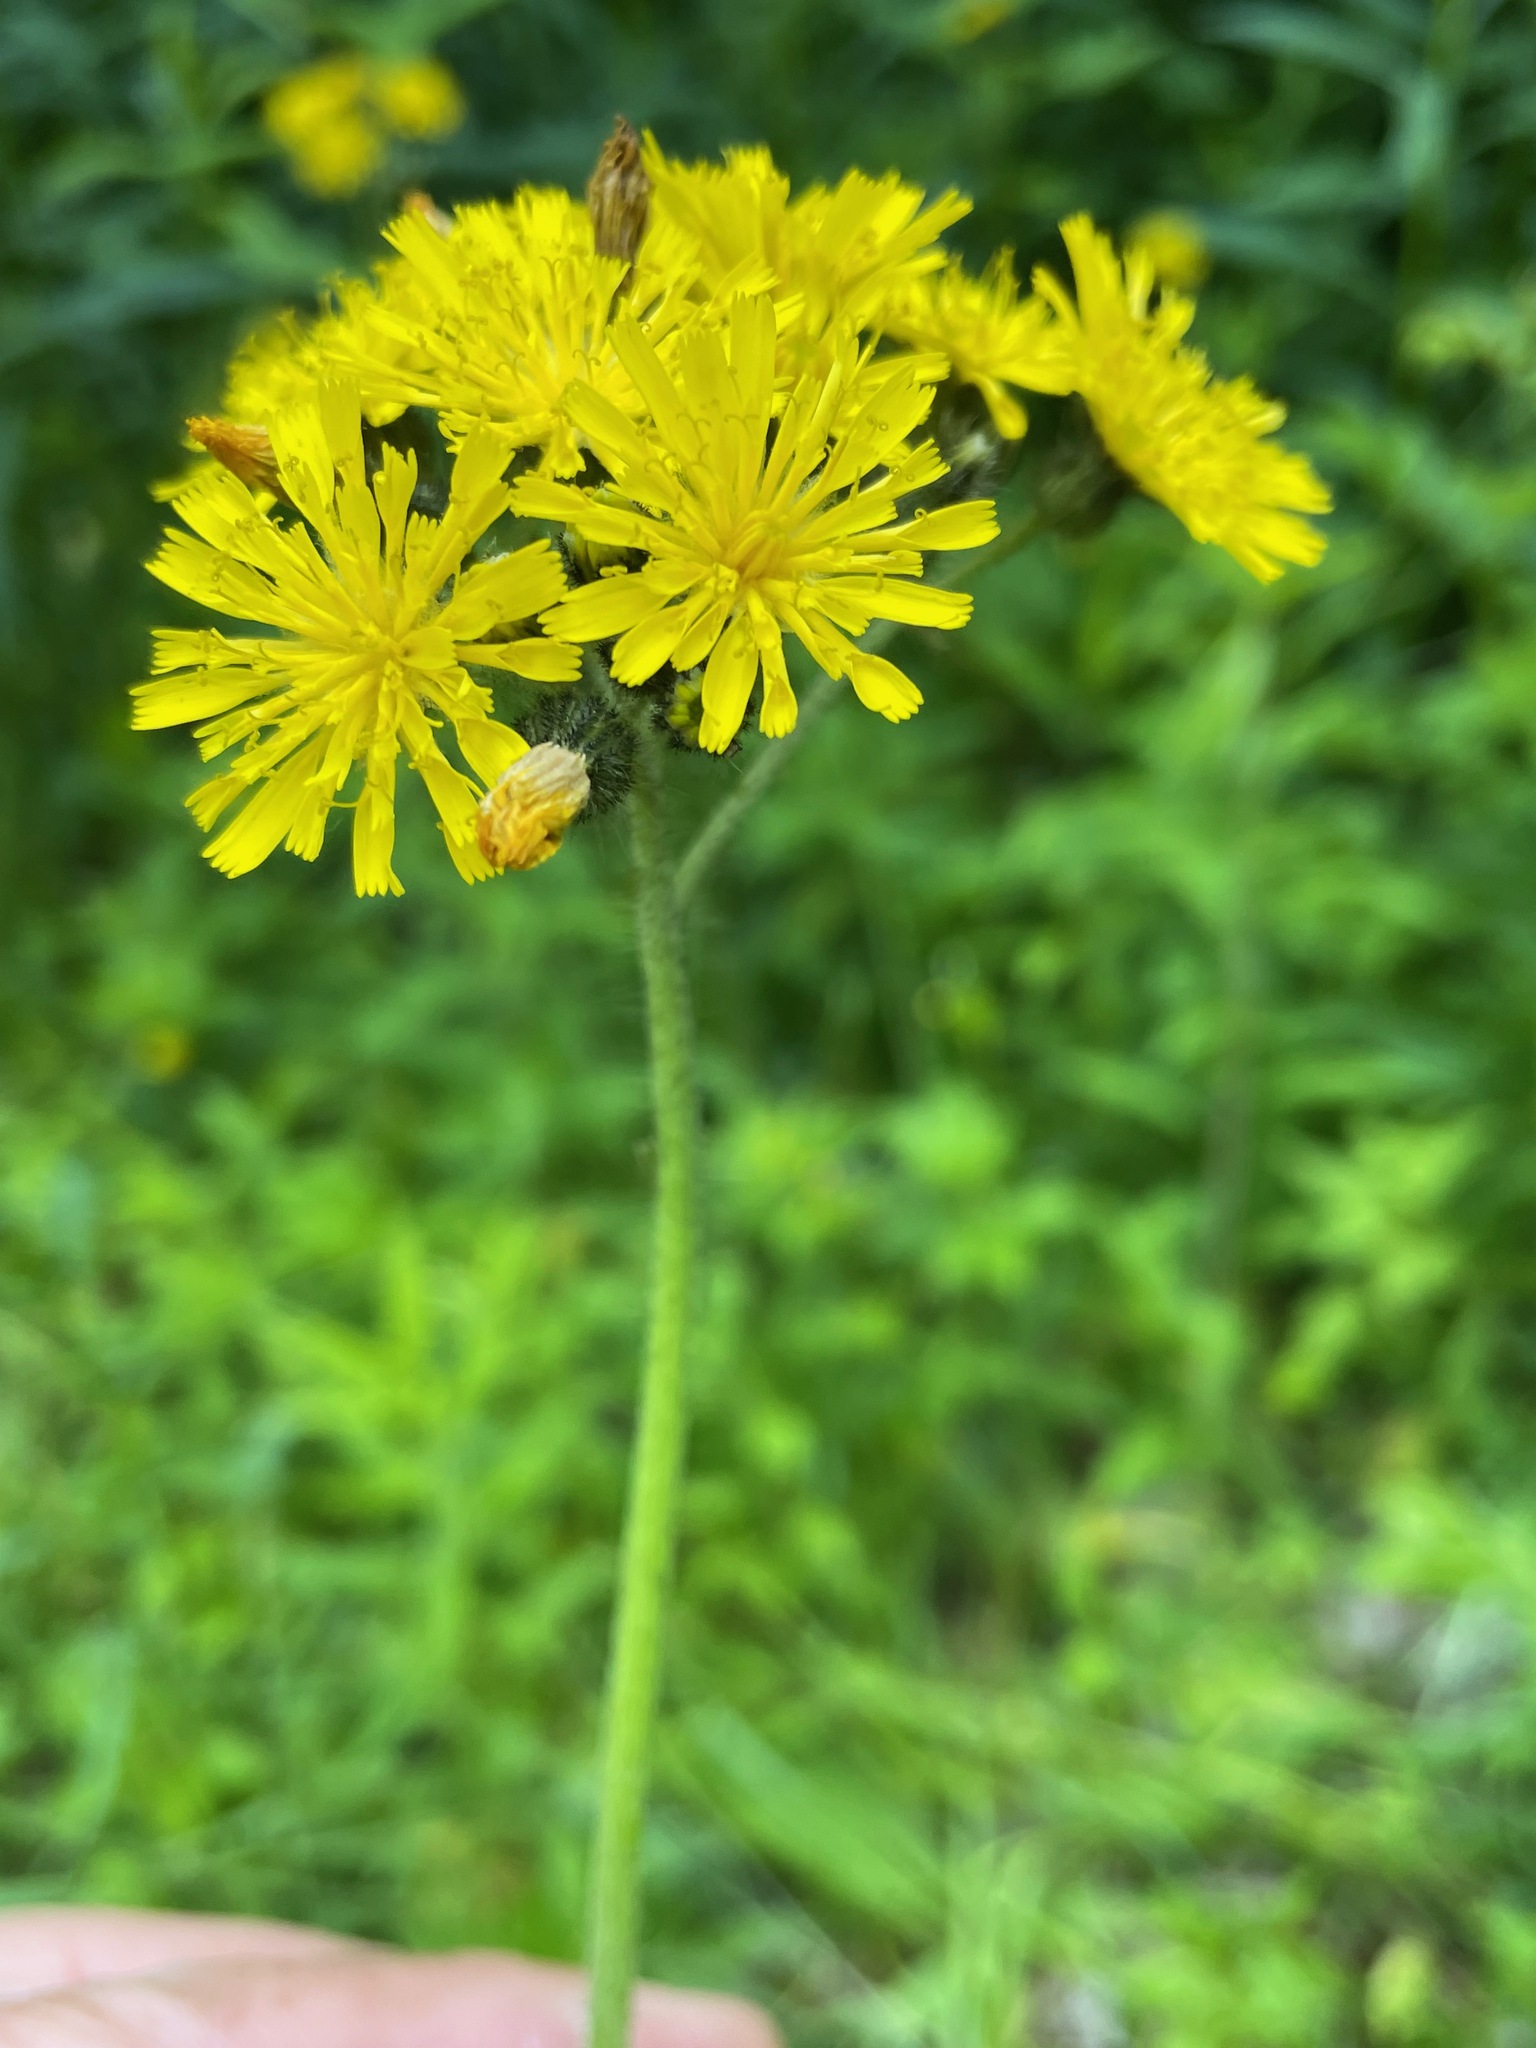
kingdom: Plantae
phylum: Tracheophyta
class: Magnoliopsida
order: Asterales
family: Asteraceae
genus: Pilosella
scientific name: Pilosella caespitosa
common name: Yellow fox-and-cubs
